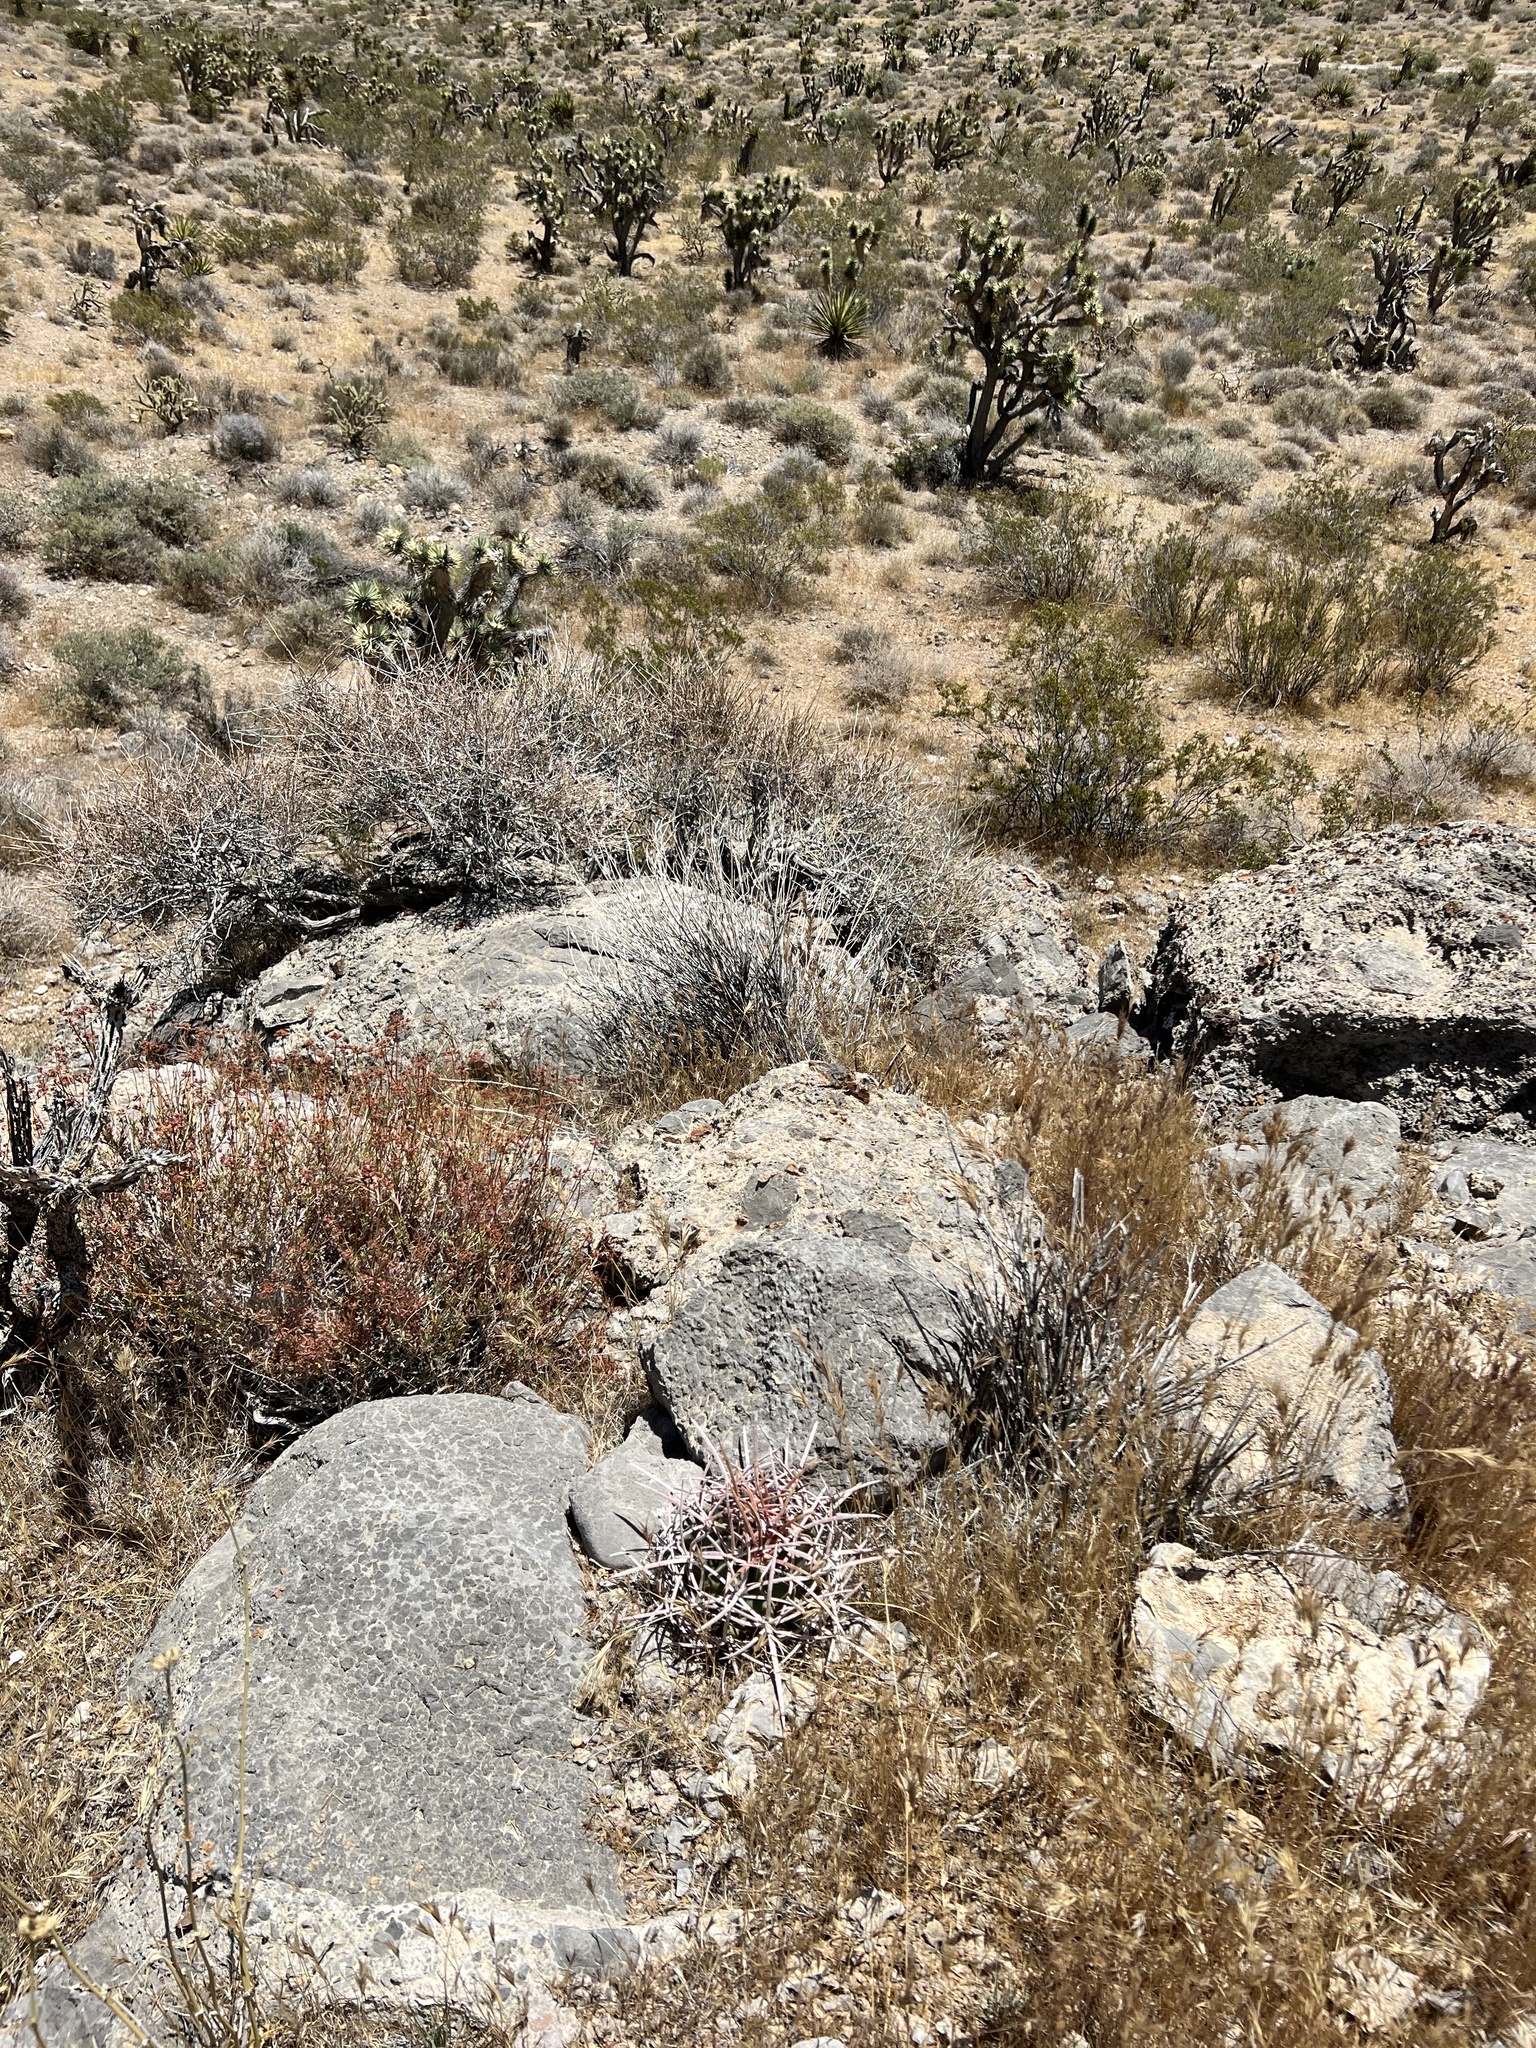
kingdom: Plantae
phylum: Tracheophyta
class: Magnoliopsida
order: Caryophyllales
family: Cactaceae
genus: Echinocactus
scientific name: Echinocactus polycephalus
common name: Cottontop cactus
